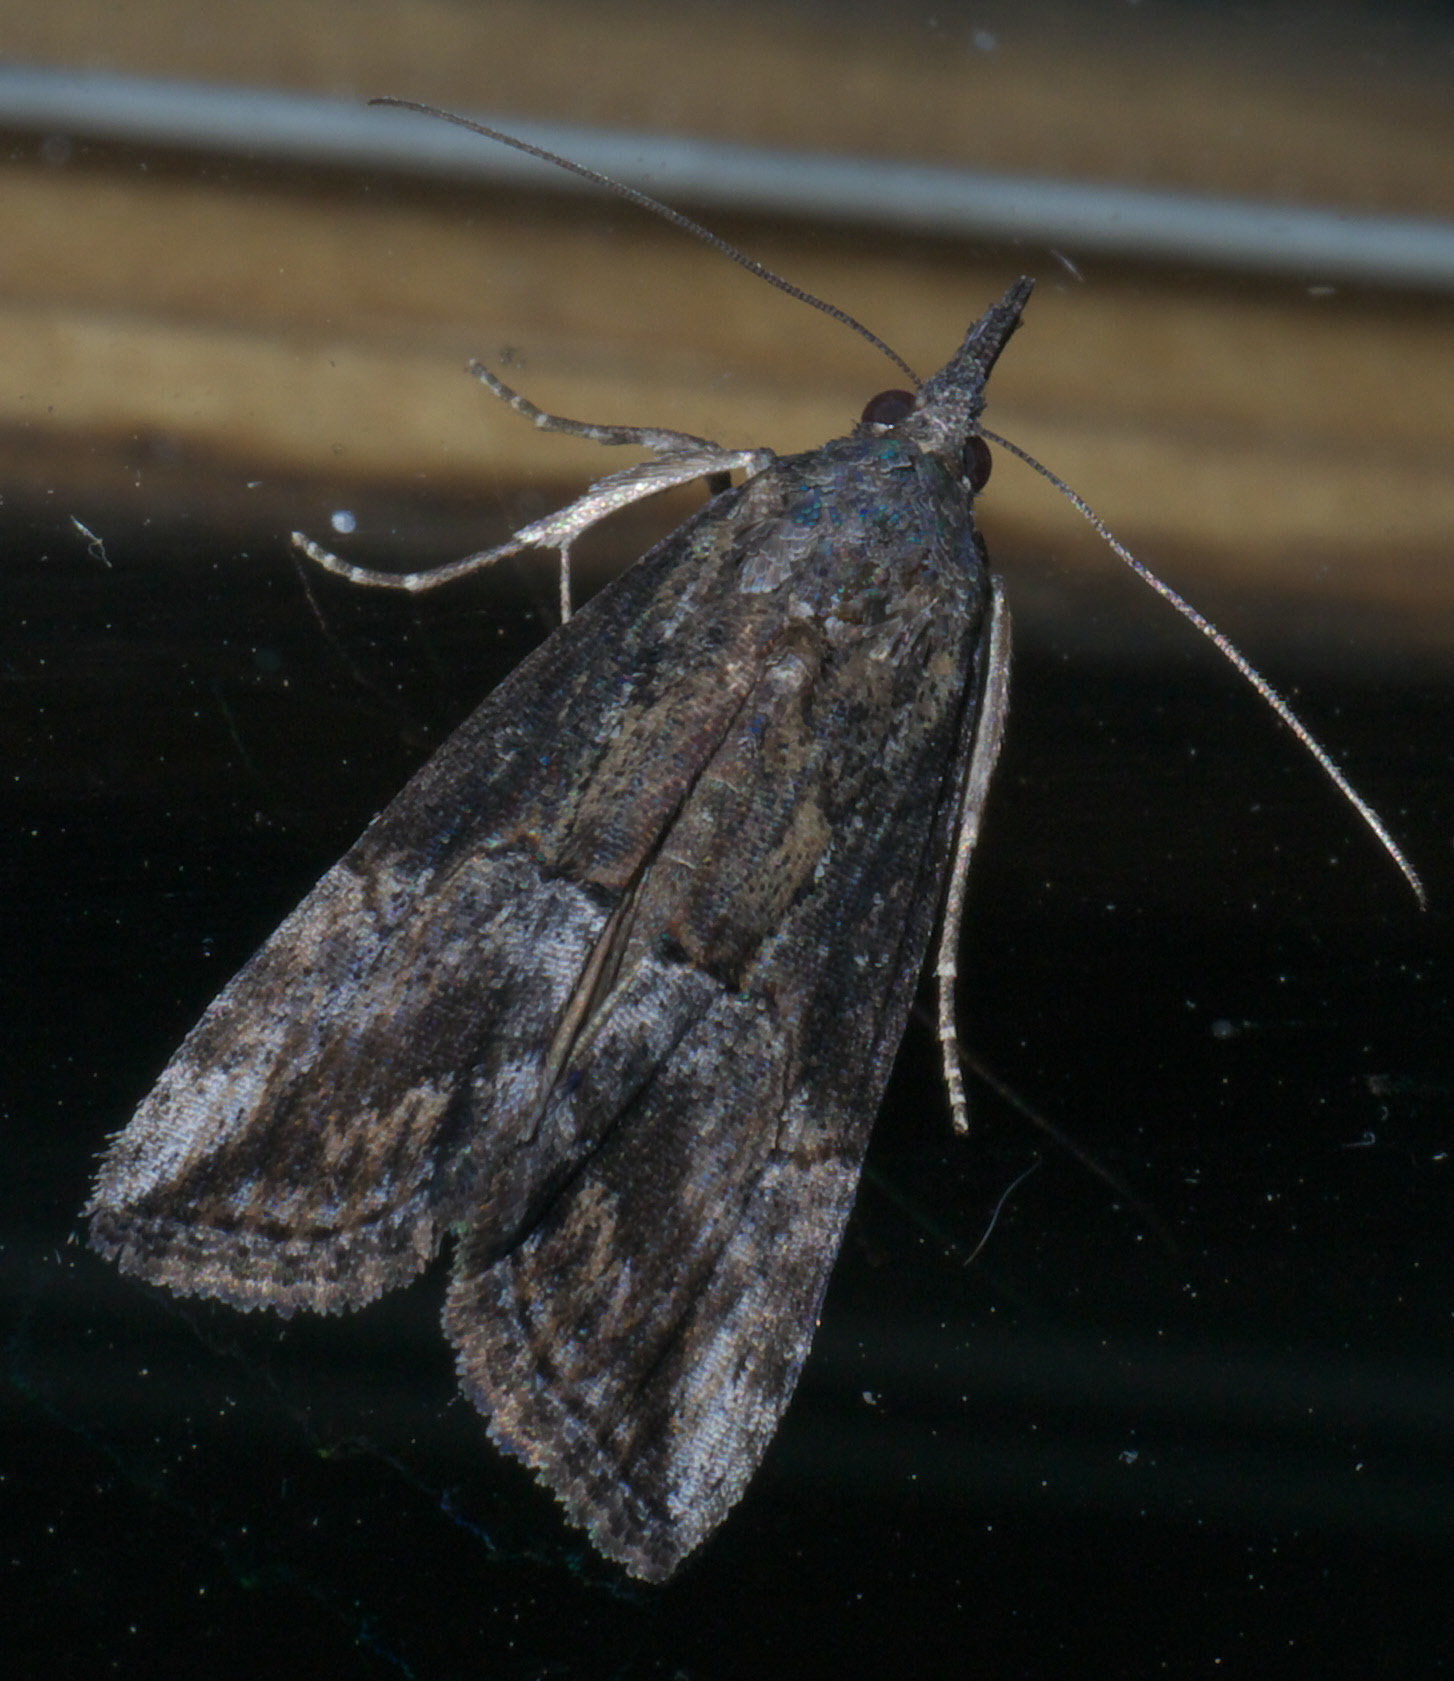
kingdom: Animalia
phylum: Arthropoda
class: Insecta
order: Lepidoptera
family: Erebidae
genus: Hypena
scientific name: Hypena scabra
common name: Green cloverworm
